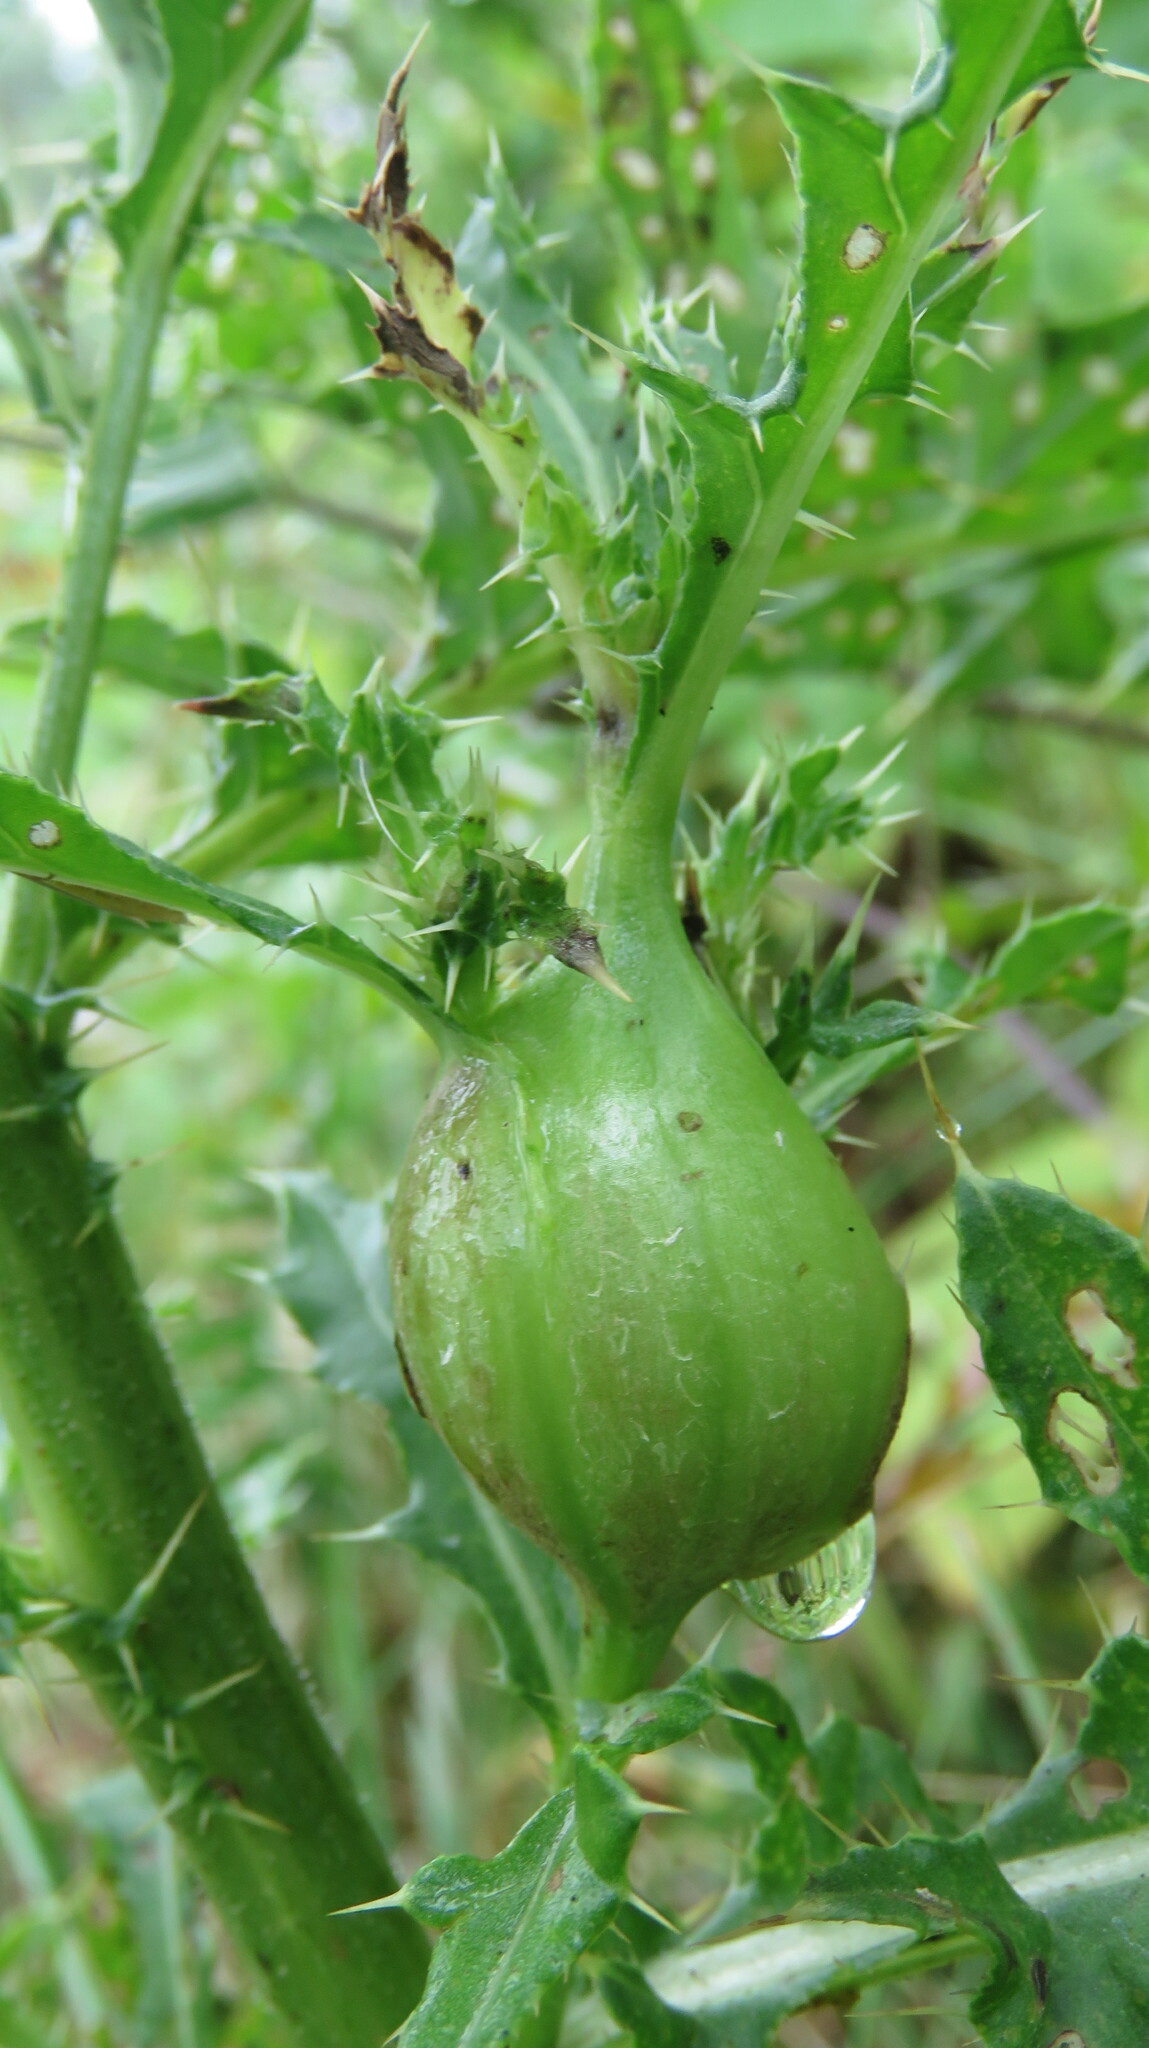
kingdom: Animalia
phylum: Arthropoda
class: Insecta
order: Diptera
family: Tephritidae
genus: Urophora
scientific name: Urophora cardui
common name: Fruit fly
